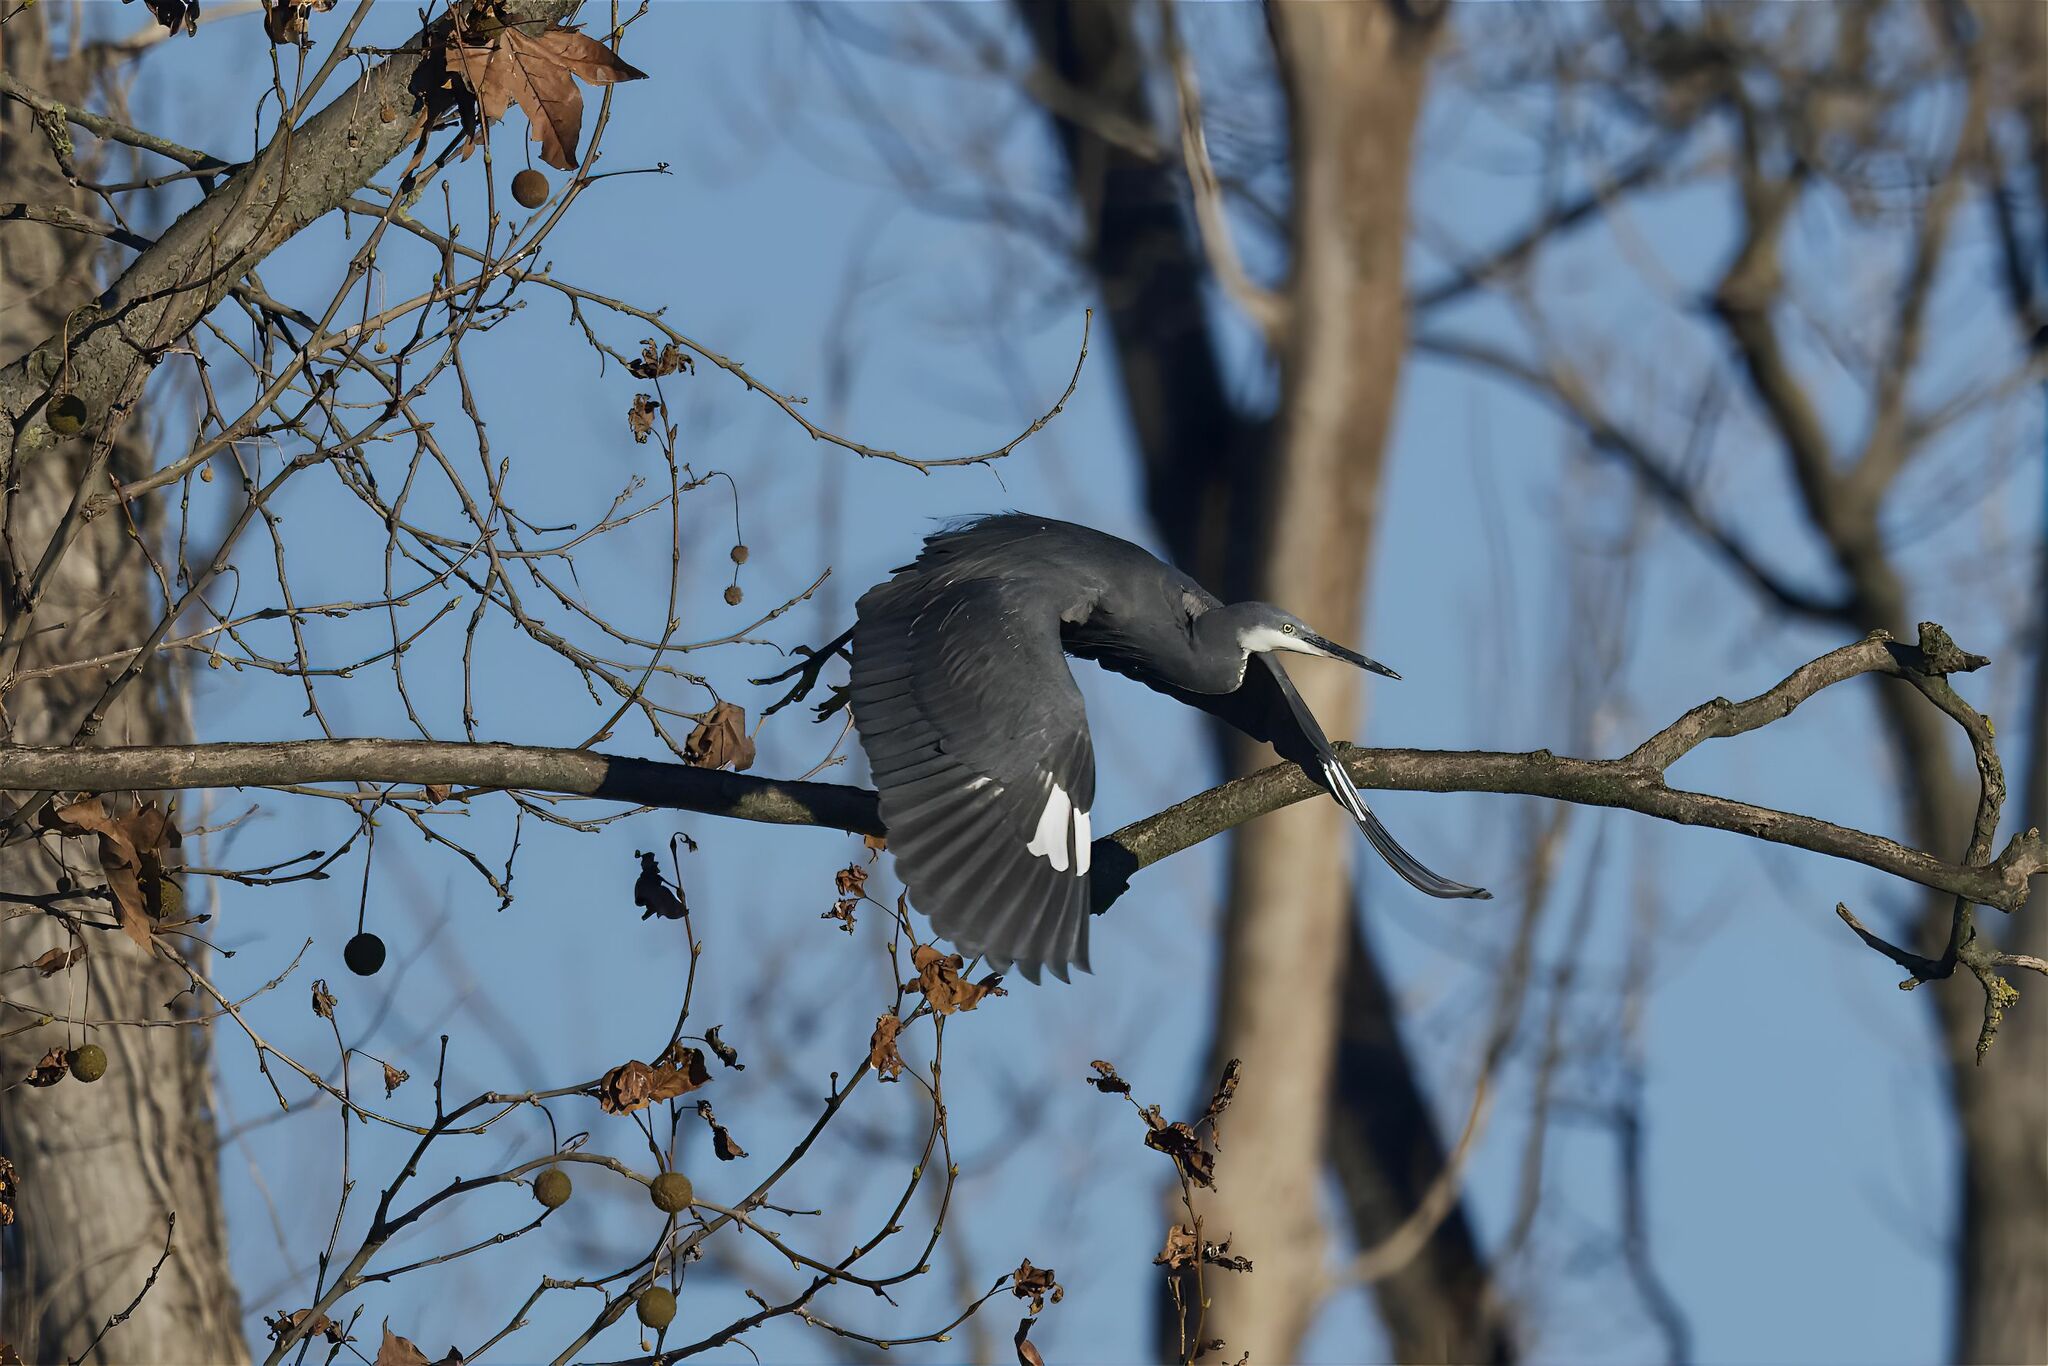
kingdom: Animalia
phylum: Chordata
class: Aves
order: Pelecaniformes
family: Ardeidae
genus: Egretta
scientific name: Egretta gularis
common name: Western reef-heron
